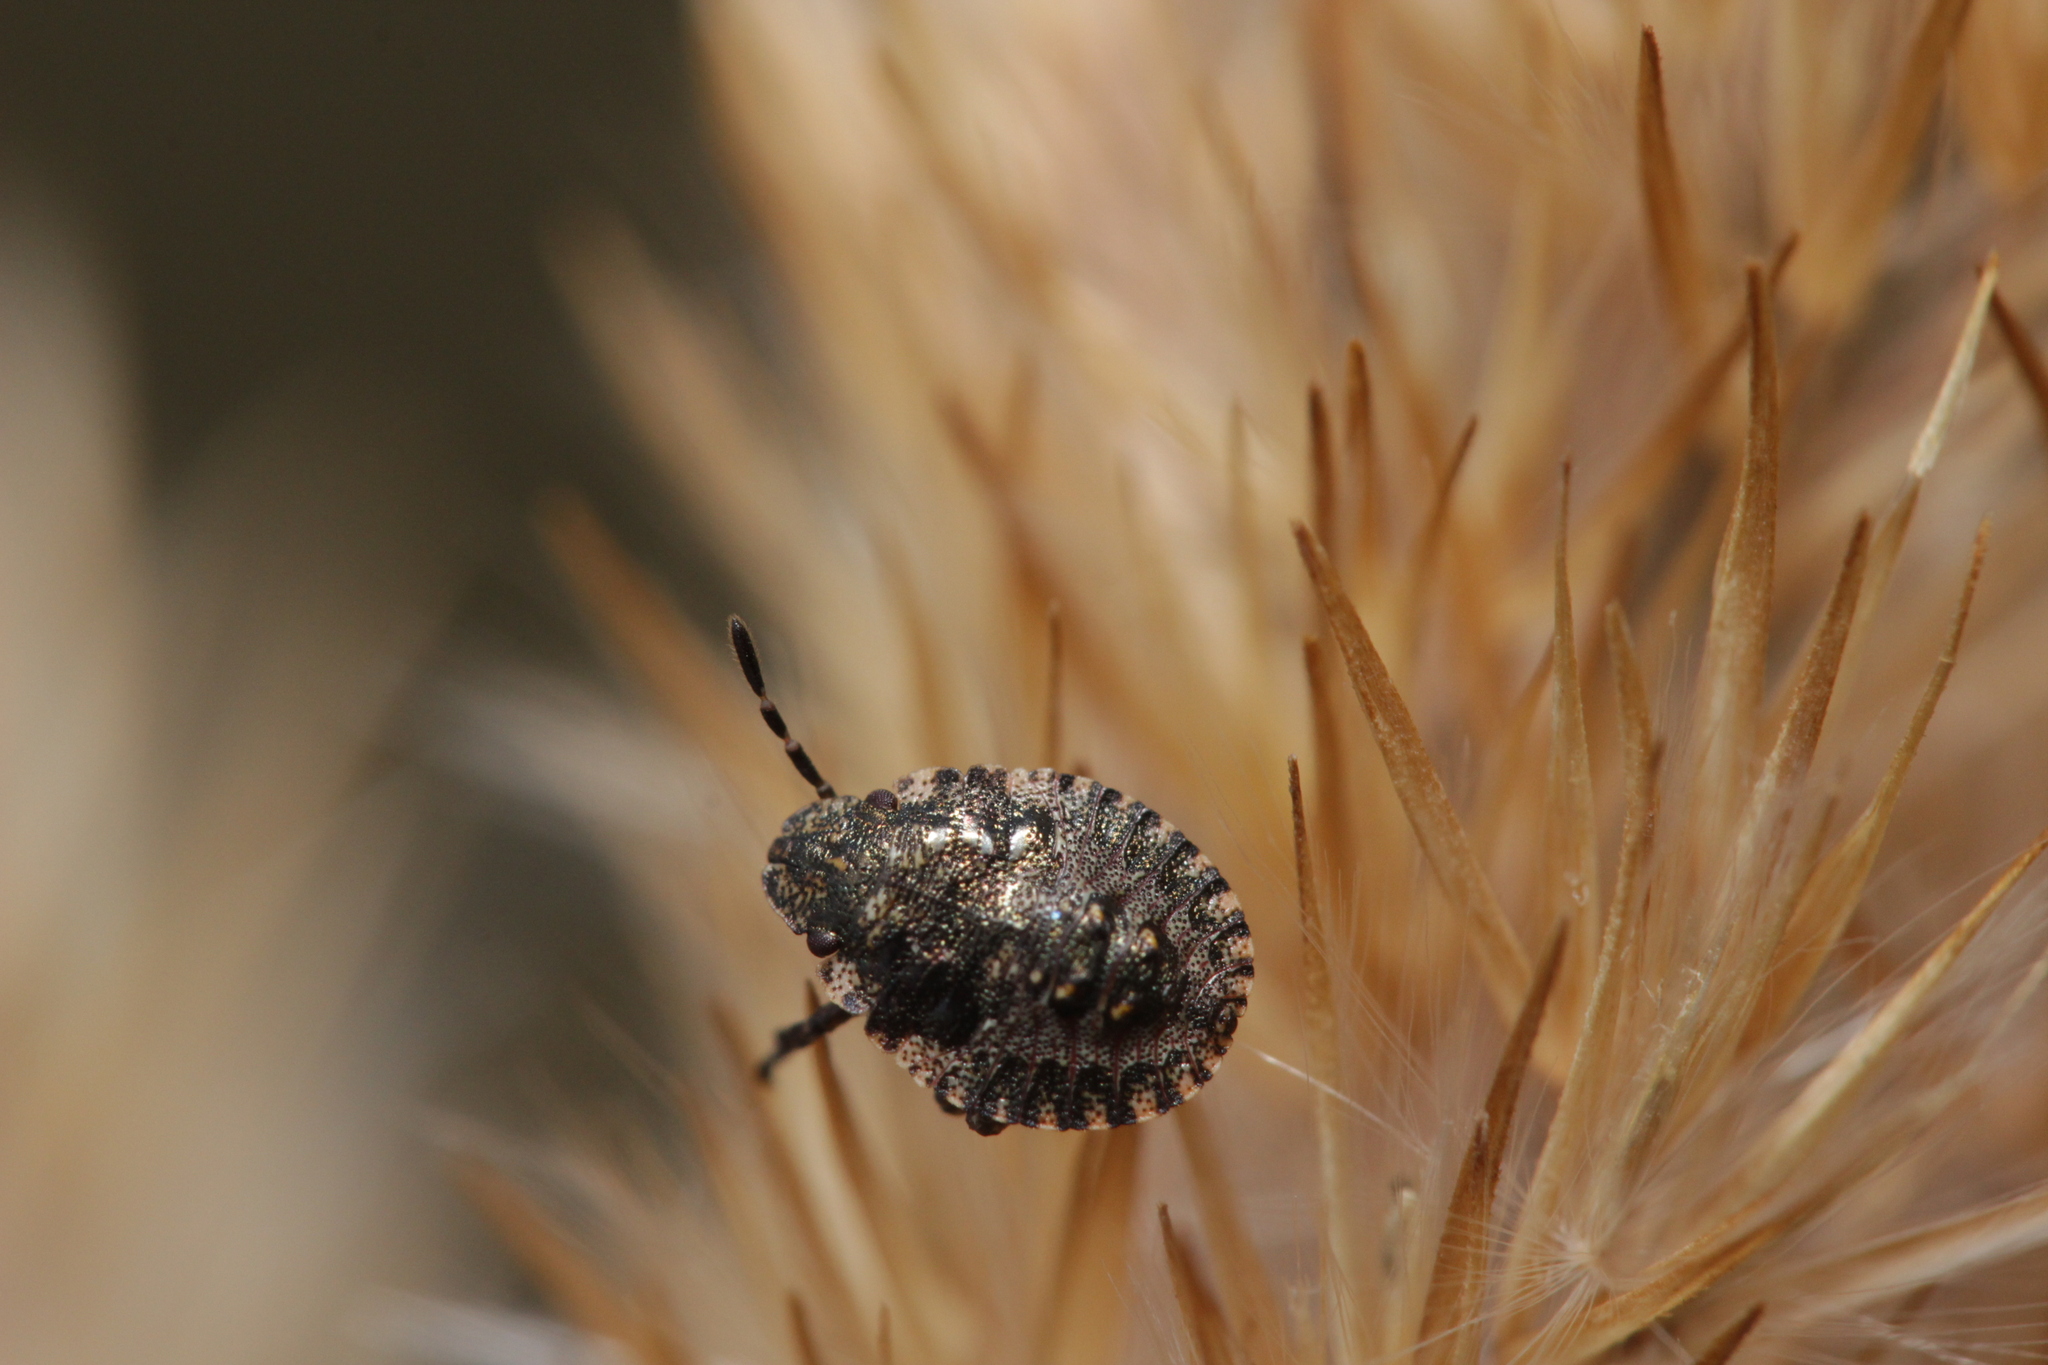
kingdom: Animalia
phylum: Arthropoda
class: Insecta
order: Hemiptera
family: Pentatomidae
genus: Pentatoma
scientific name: Pentatoma rufipes
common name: Forest bug
